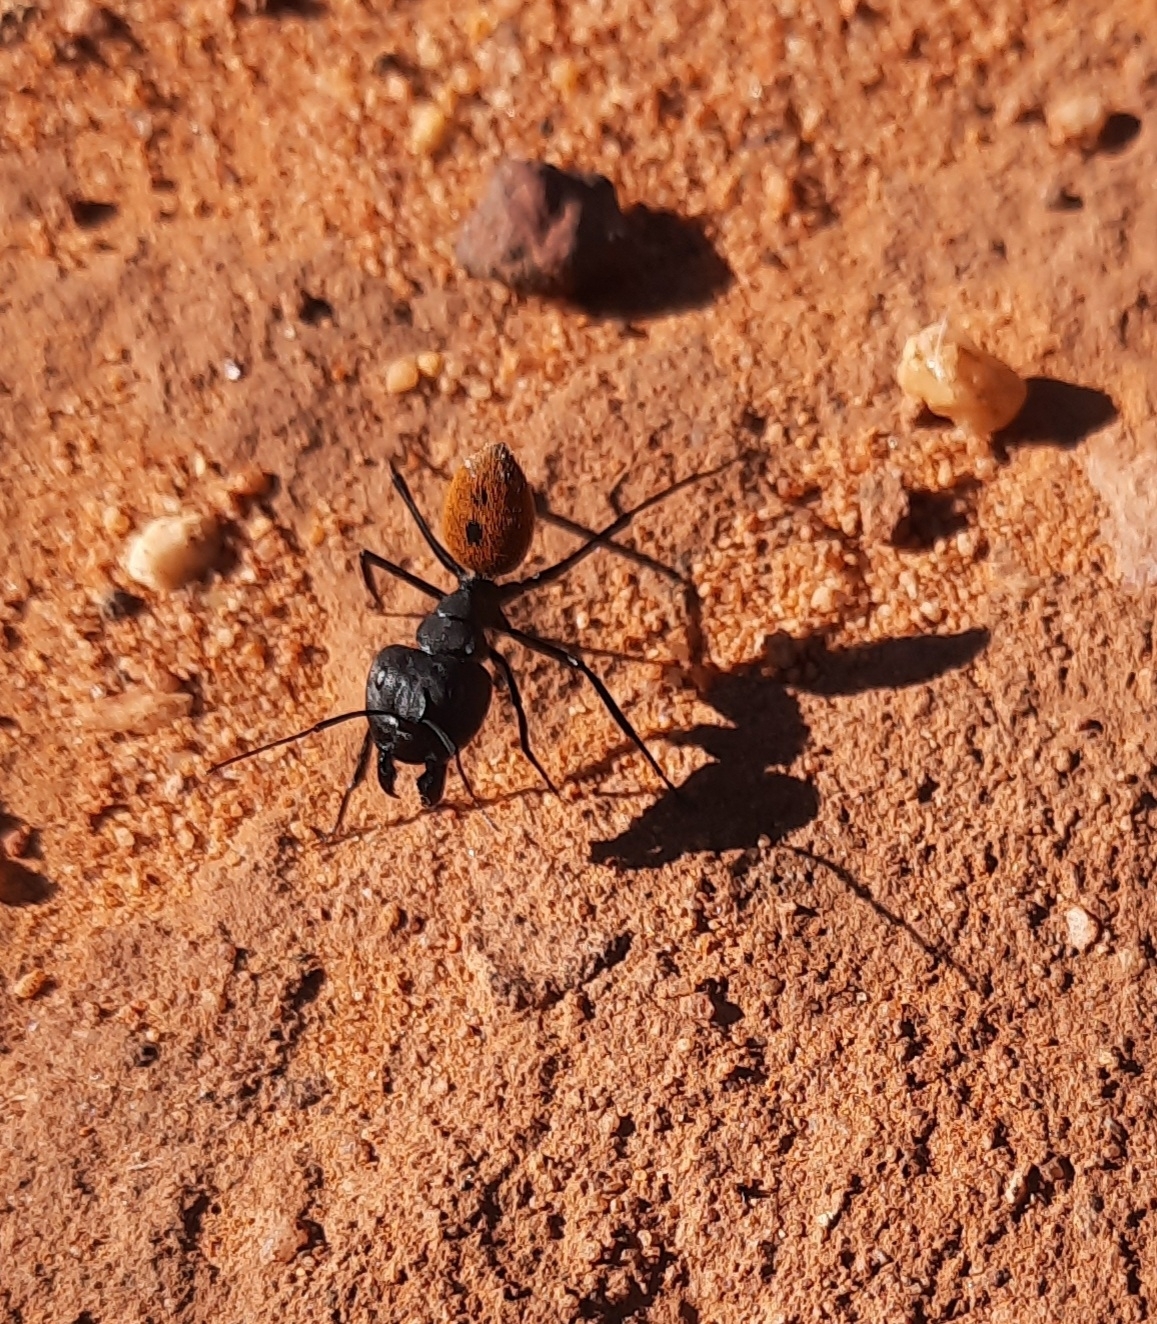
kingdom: Animalia
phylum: Arthropoda
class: Insecta
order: Hymenoptera
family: Formicidae
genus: Camponotus
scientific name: Camponotus fulvopilosus
